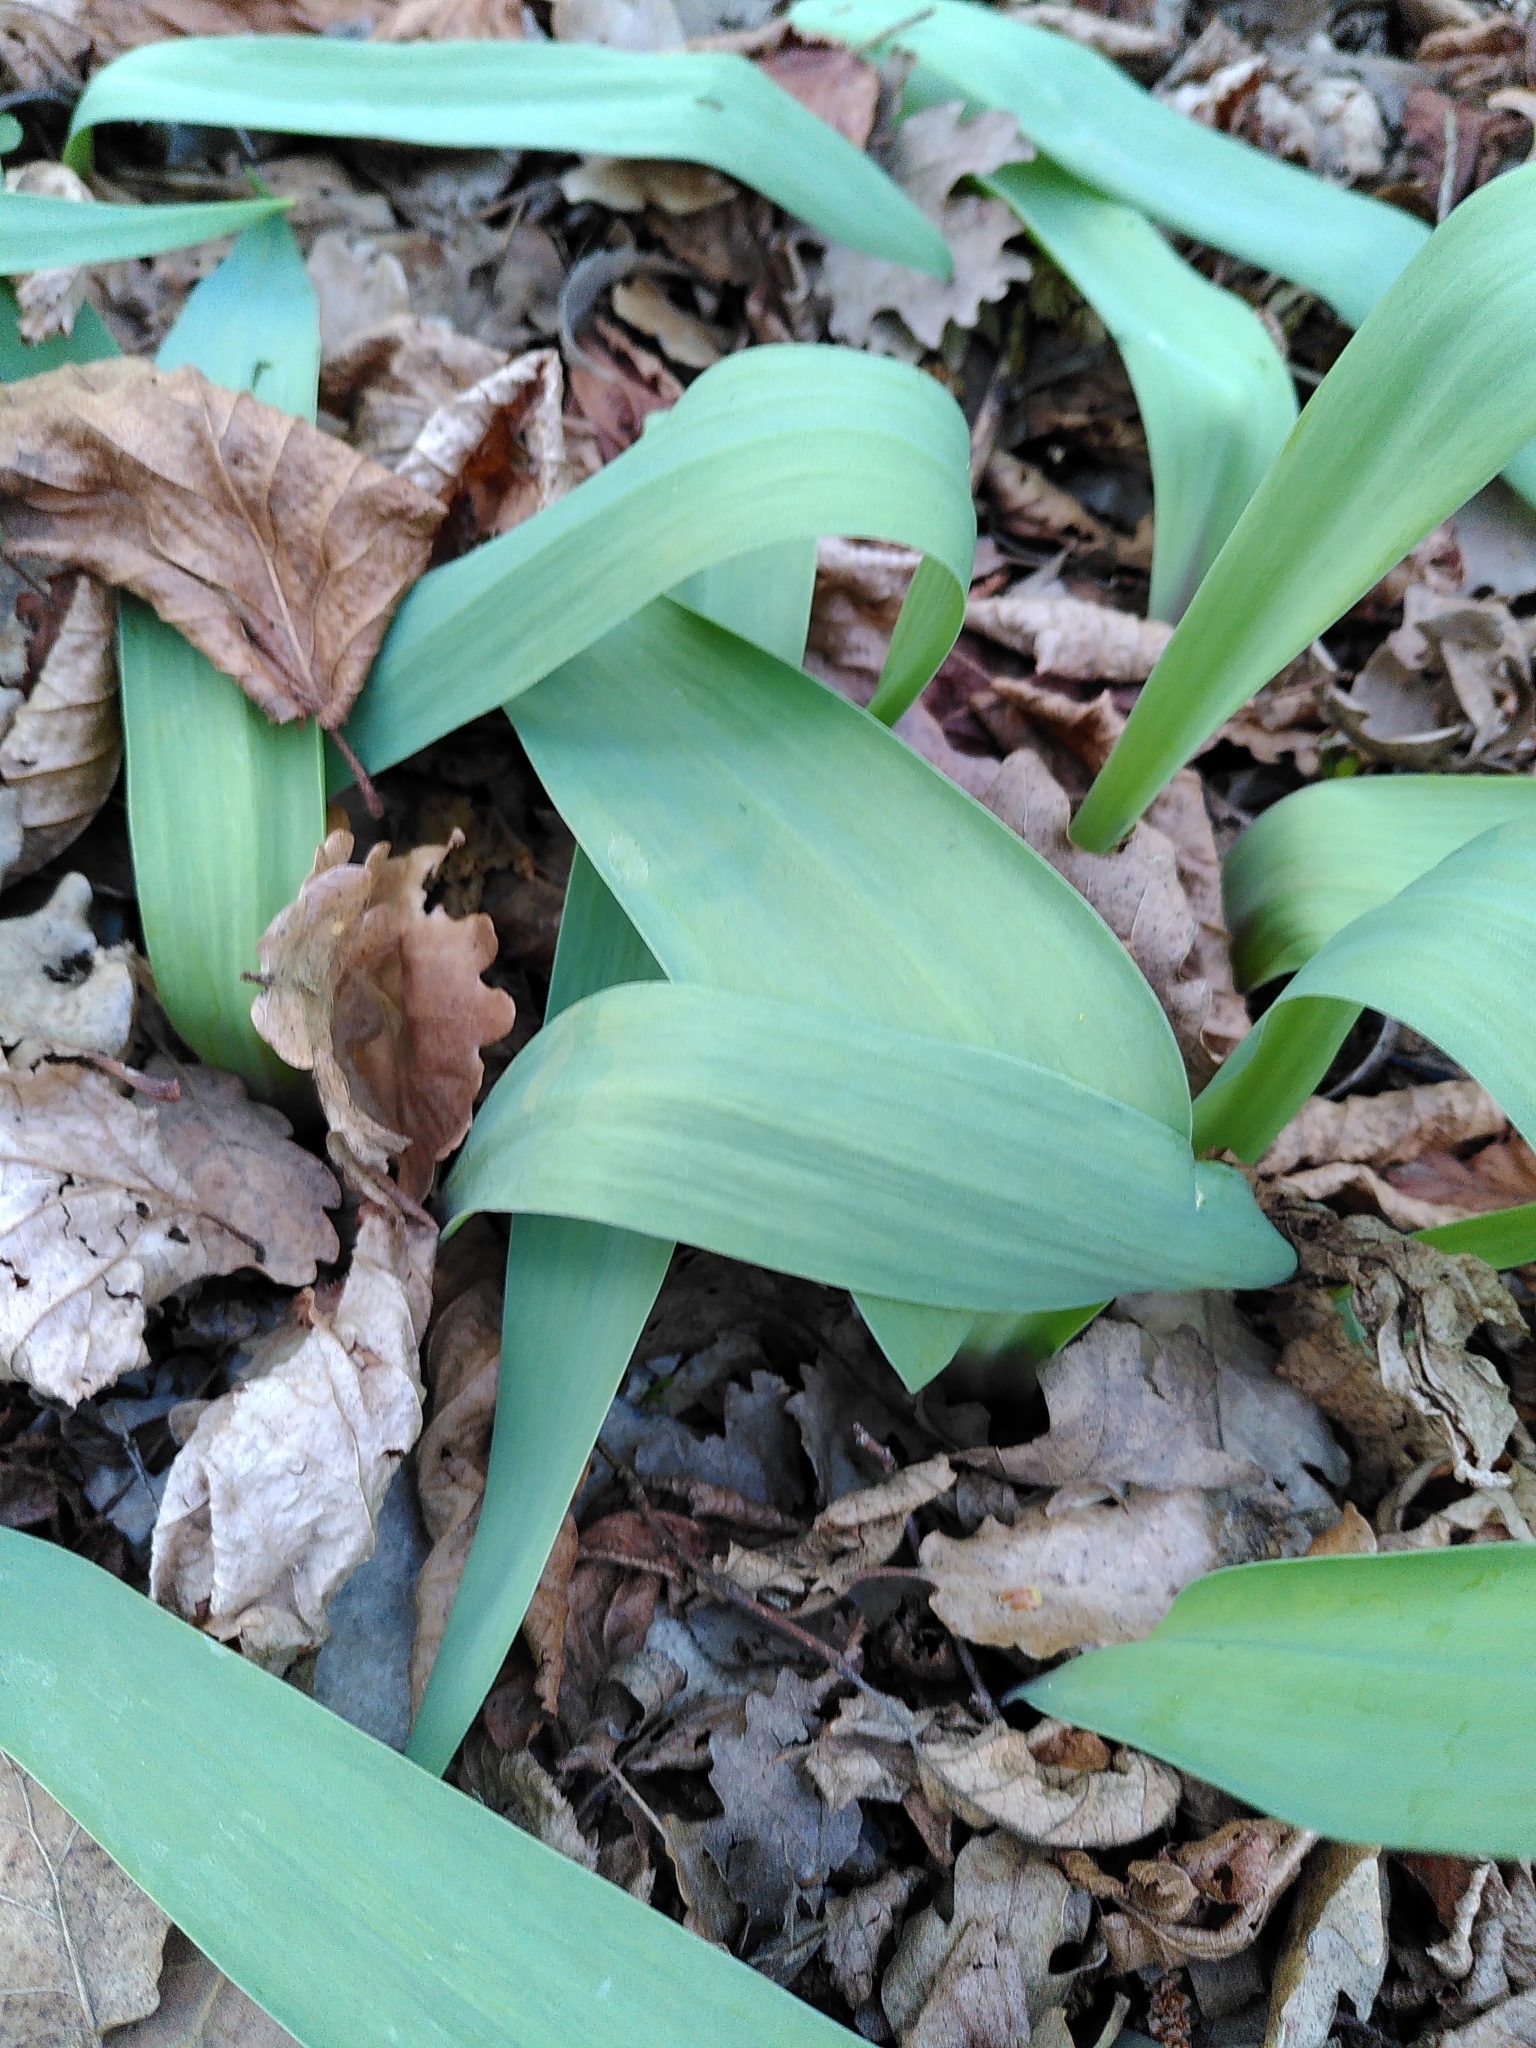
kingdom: Plantae
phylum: Tracheophyta
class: Liliopsida
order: Liliales
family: Liliaceae
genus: Tulipa
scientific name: Tulipa agenensis
